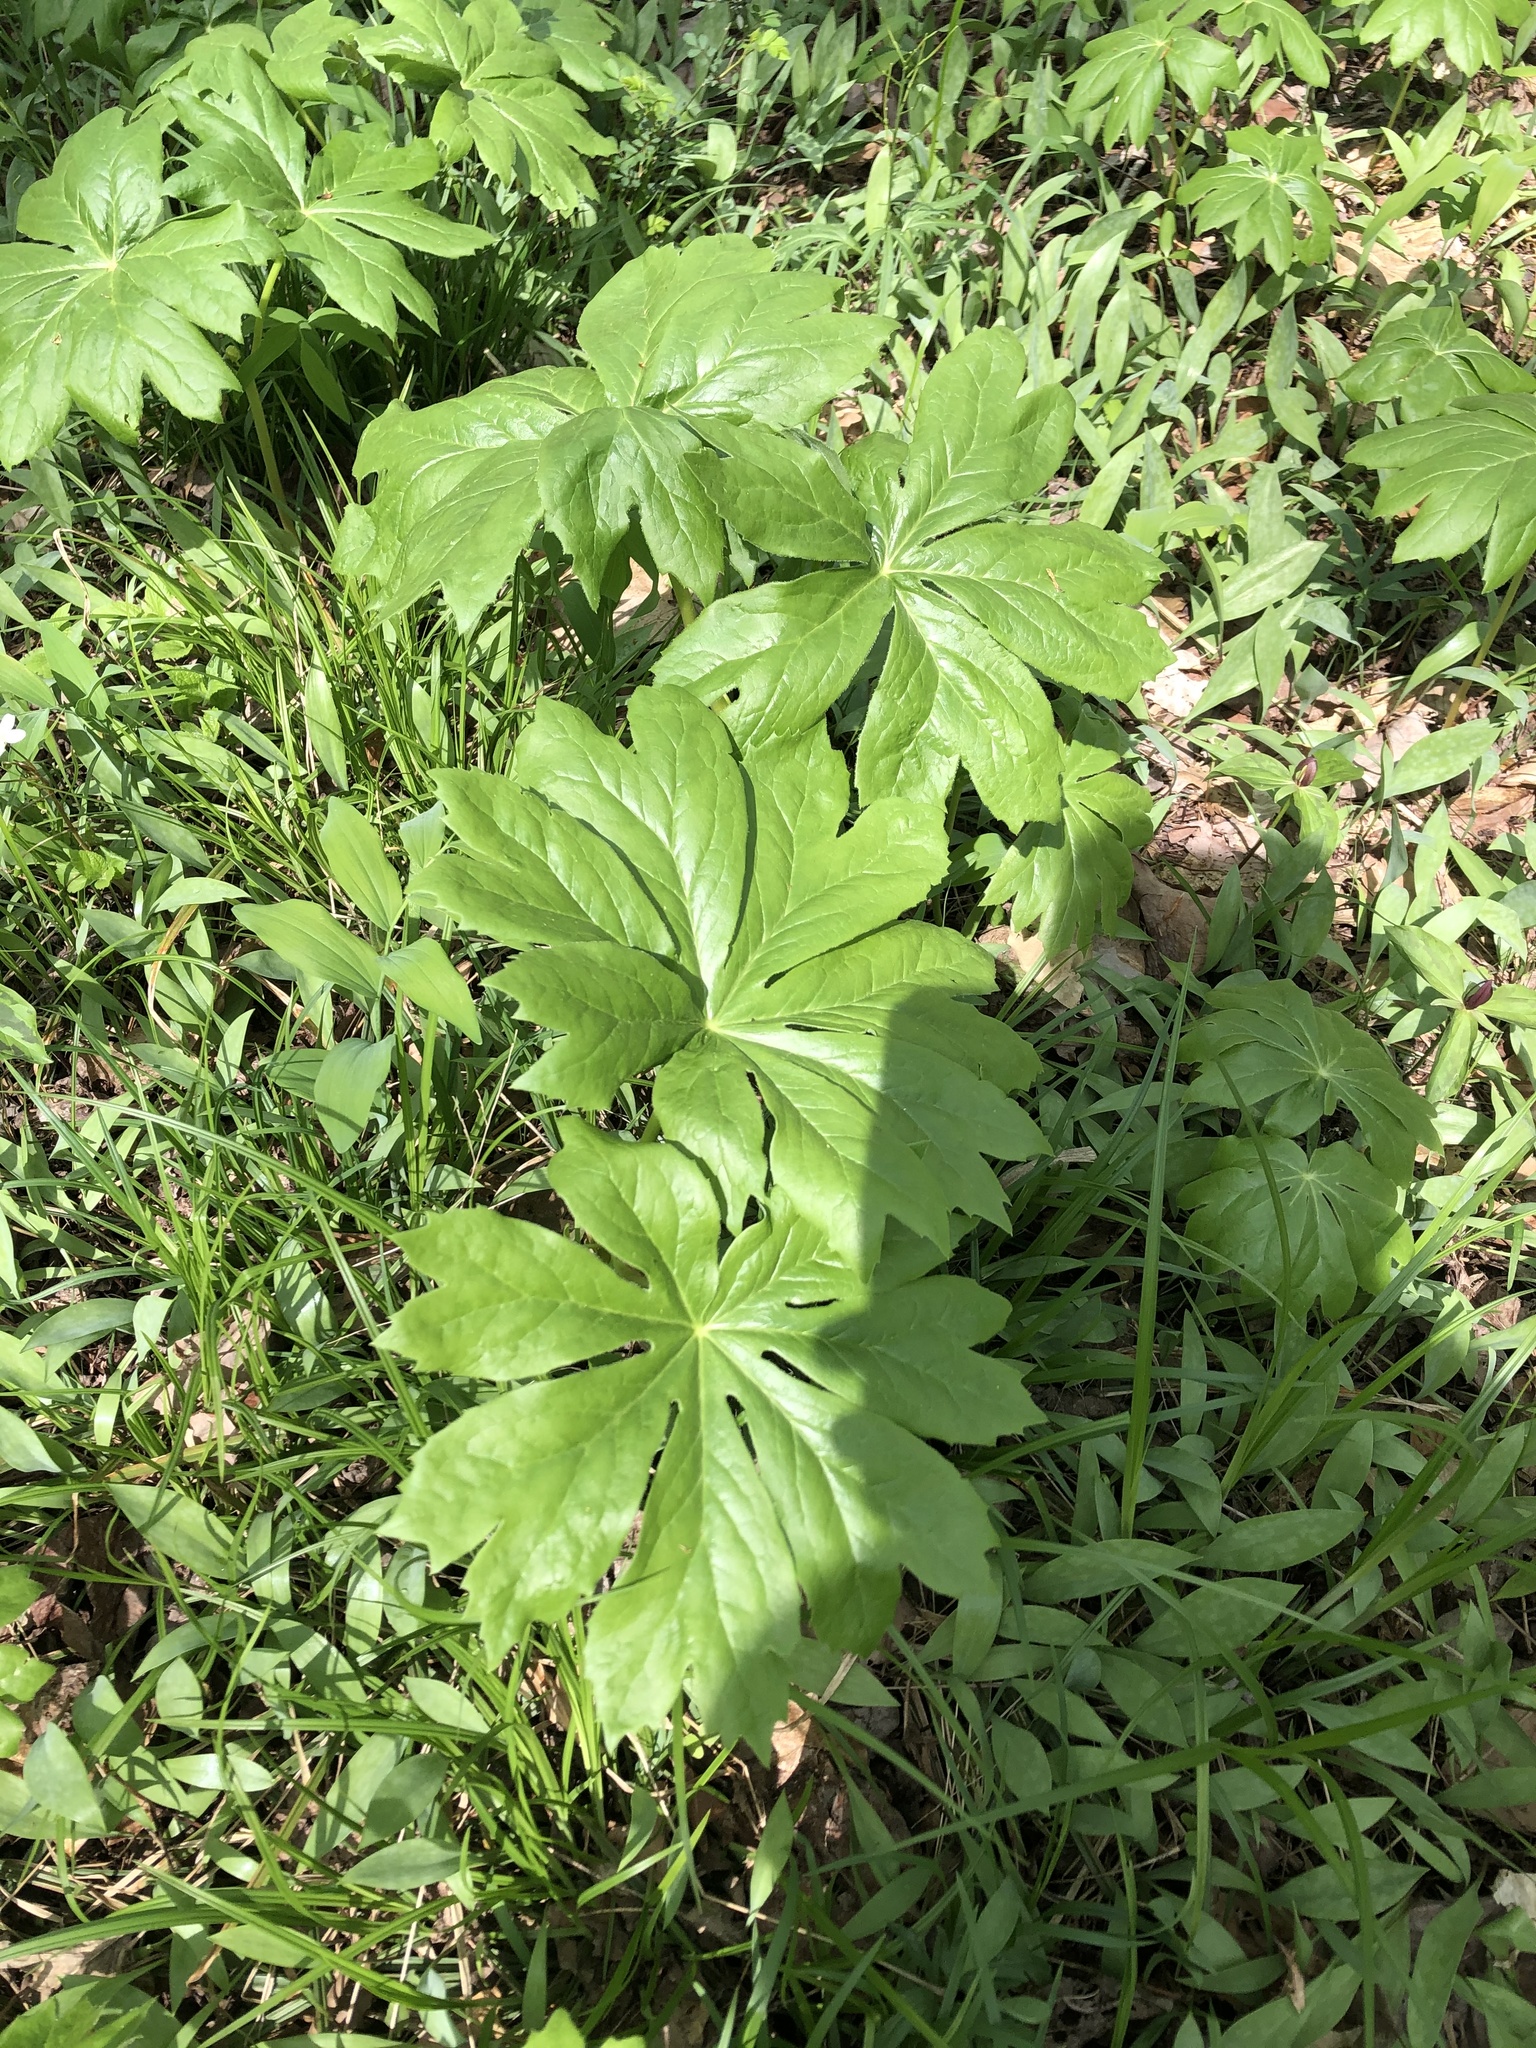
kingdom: Plantae
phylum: Tracheophyta
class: Magnoliopsida
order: Ranunculales
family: Berberidaceae
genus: Podophyllum
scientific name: Podophyllum peltatum
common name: Wild mandrake
